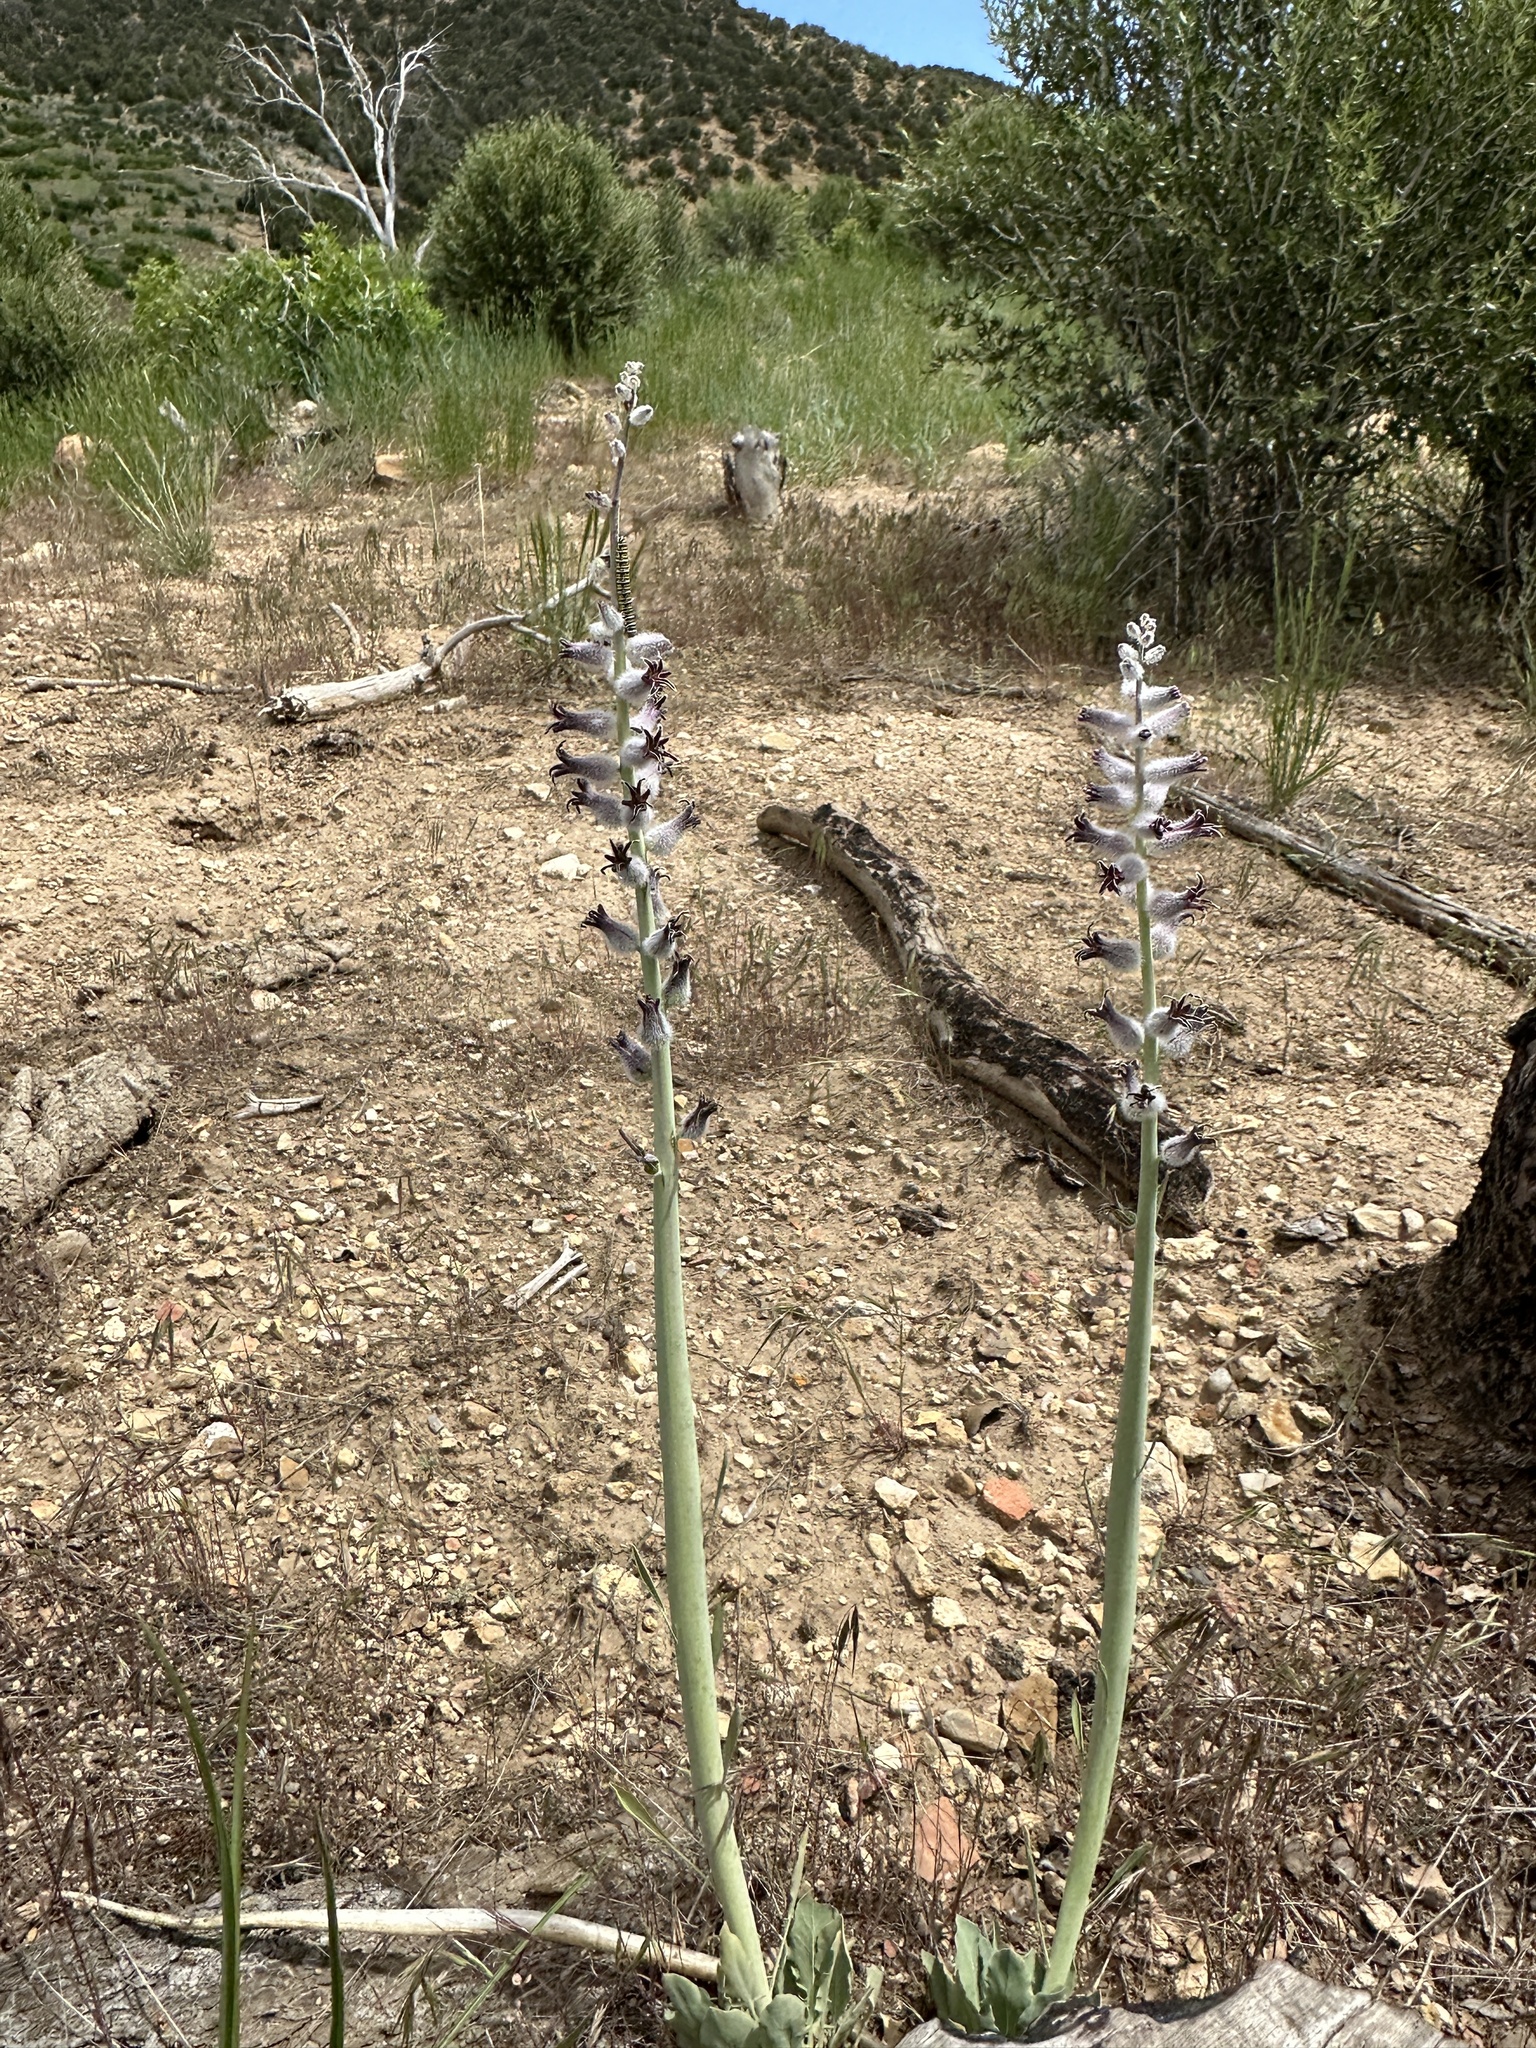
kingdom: Plantae
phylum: Tracheophyta
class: Magnoliopsida
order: Brassicales
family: Brassicaceae
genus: Streptanthus
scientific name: Streptanthus crassicaulis
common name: Thick-stem wild cabbage
